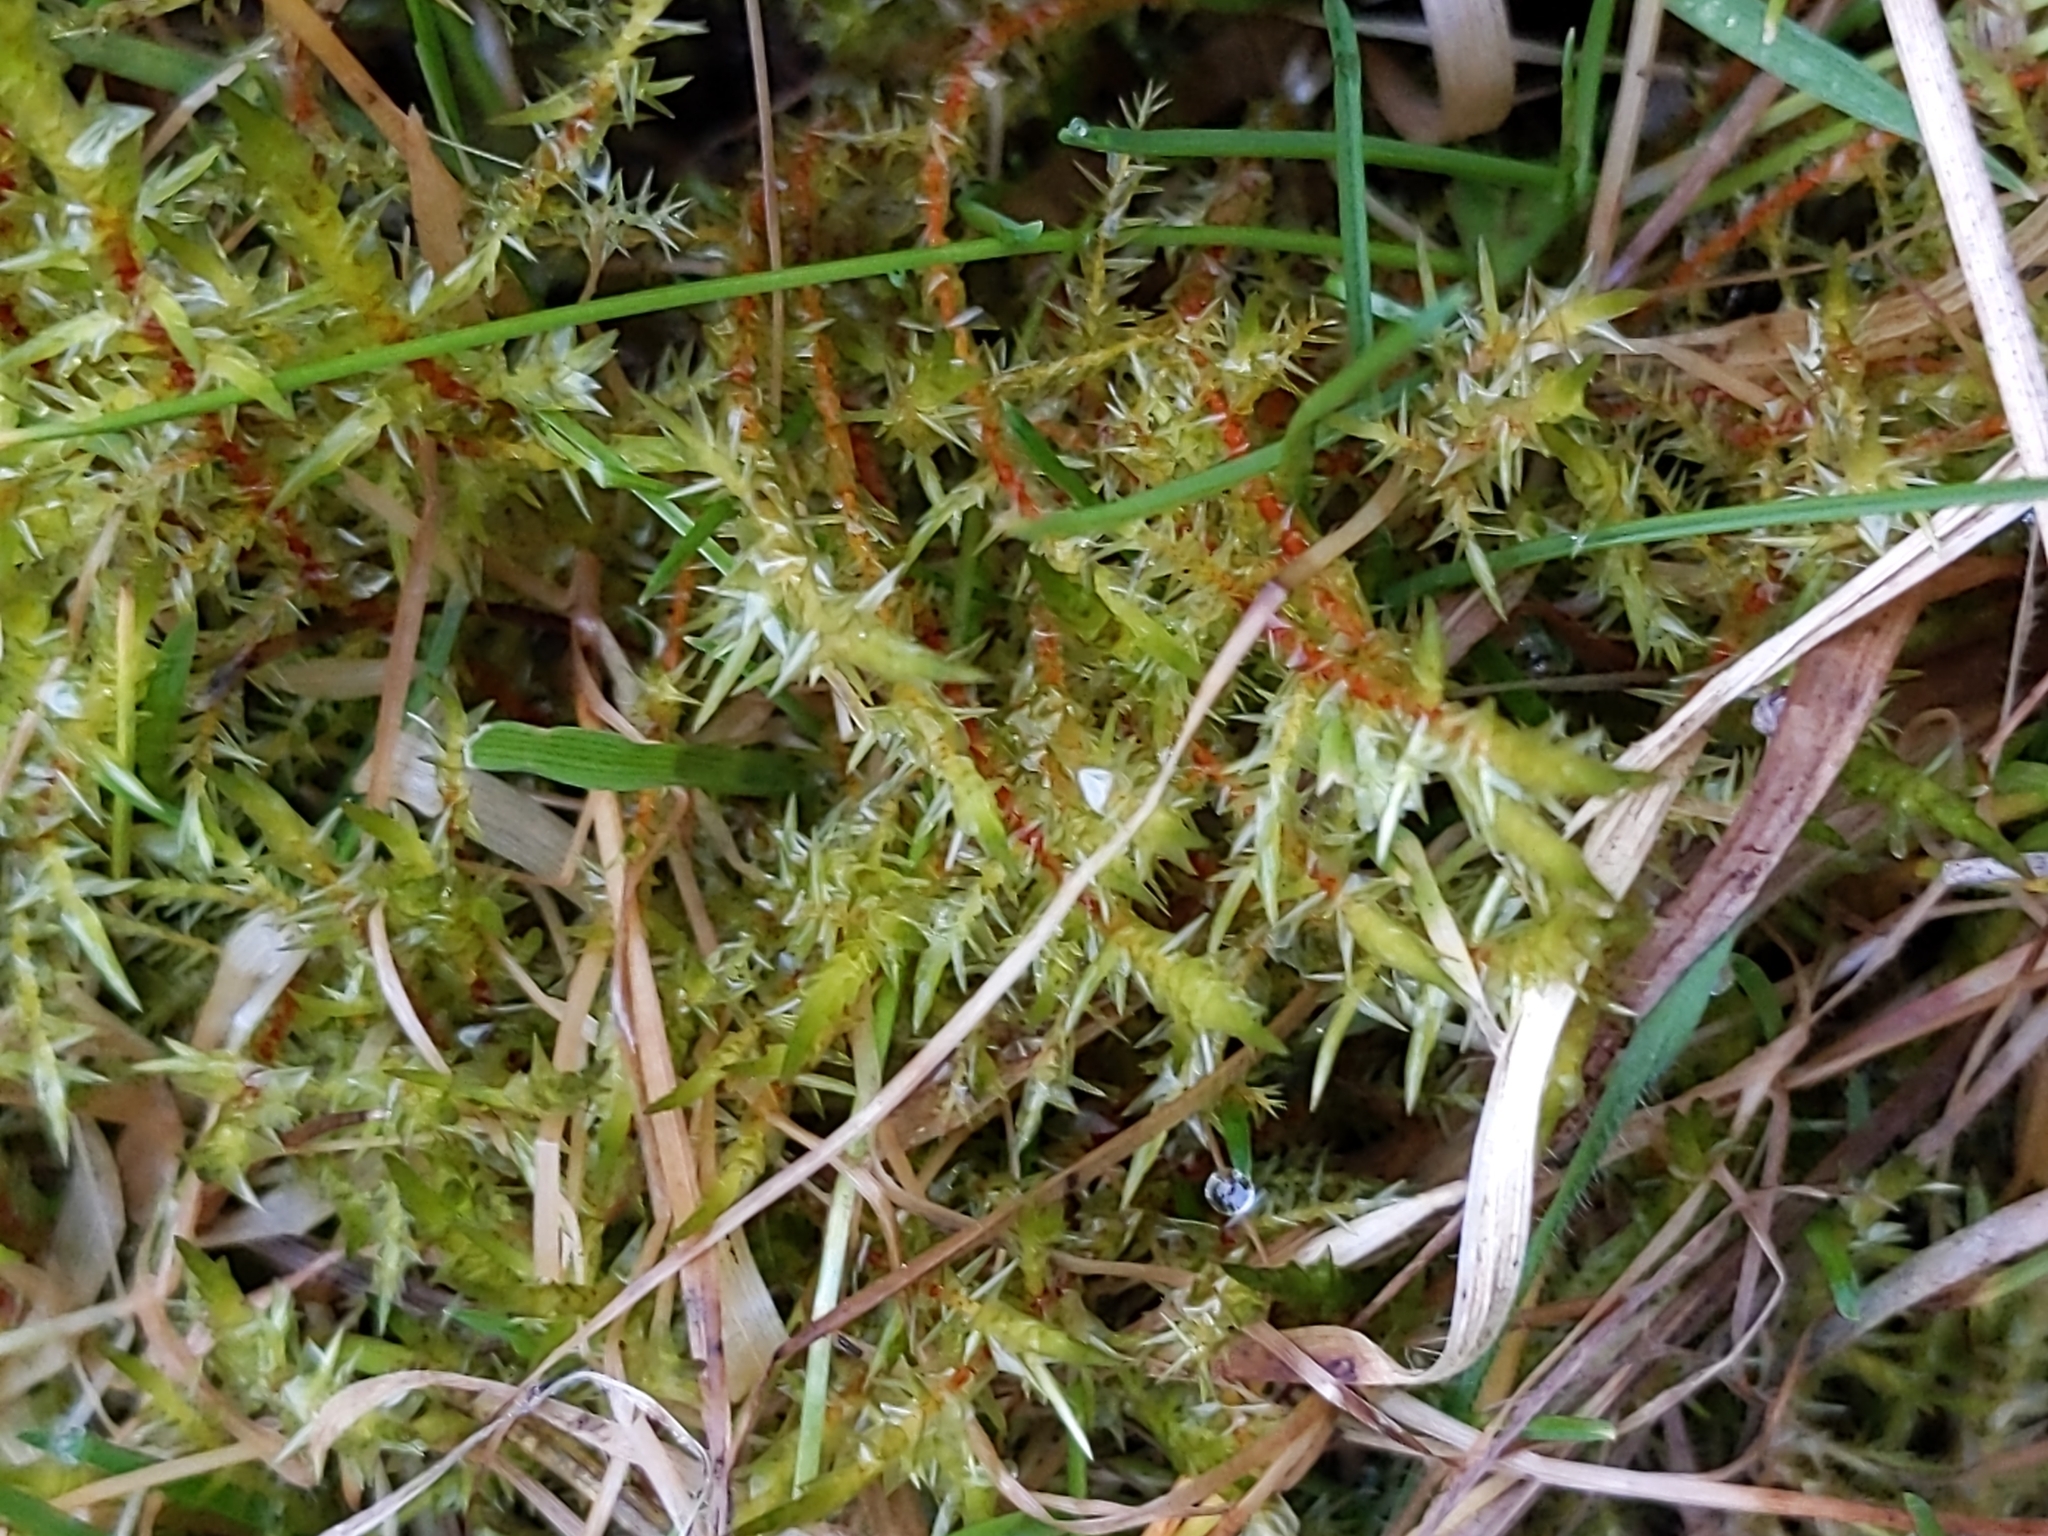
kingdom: Plantae
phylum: Bryophyta
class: Bryopsida
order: Hypnales
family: Pylaisiaceae
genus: Calliergonella
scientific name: Calliergonella cuspidata
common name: Common large wetland moss
